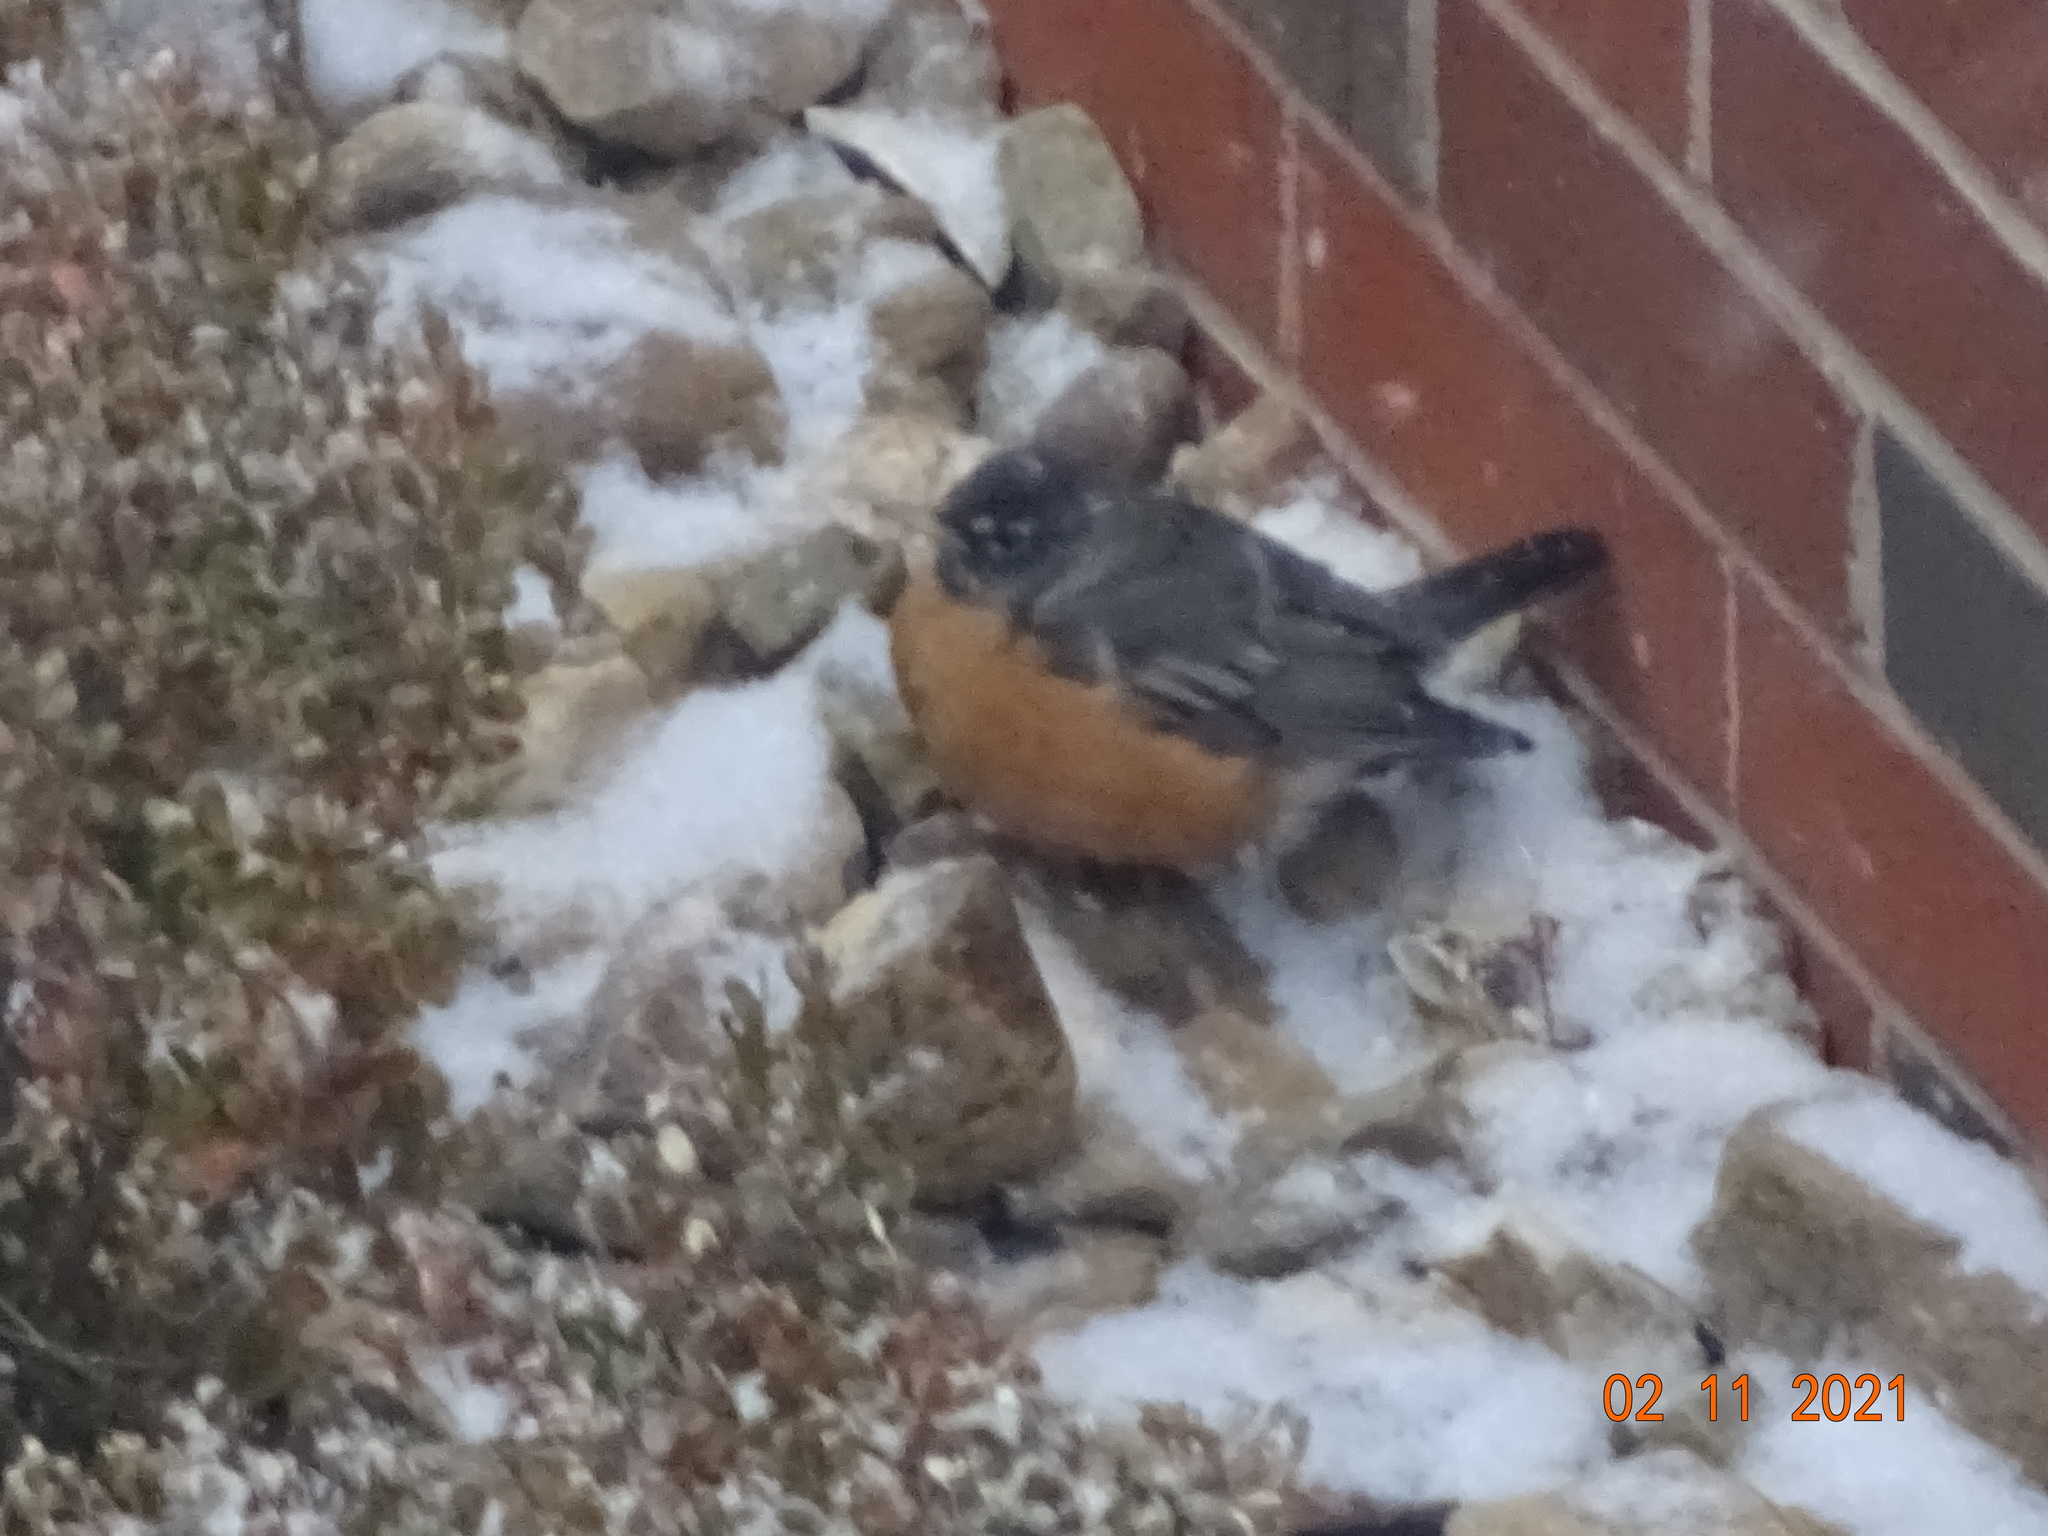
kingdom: Animalia
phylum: Chordata
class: Aves
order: Passeriformes
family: Turdidae
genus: Turdus
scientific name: Turdus migratorius
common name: American robin
